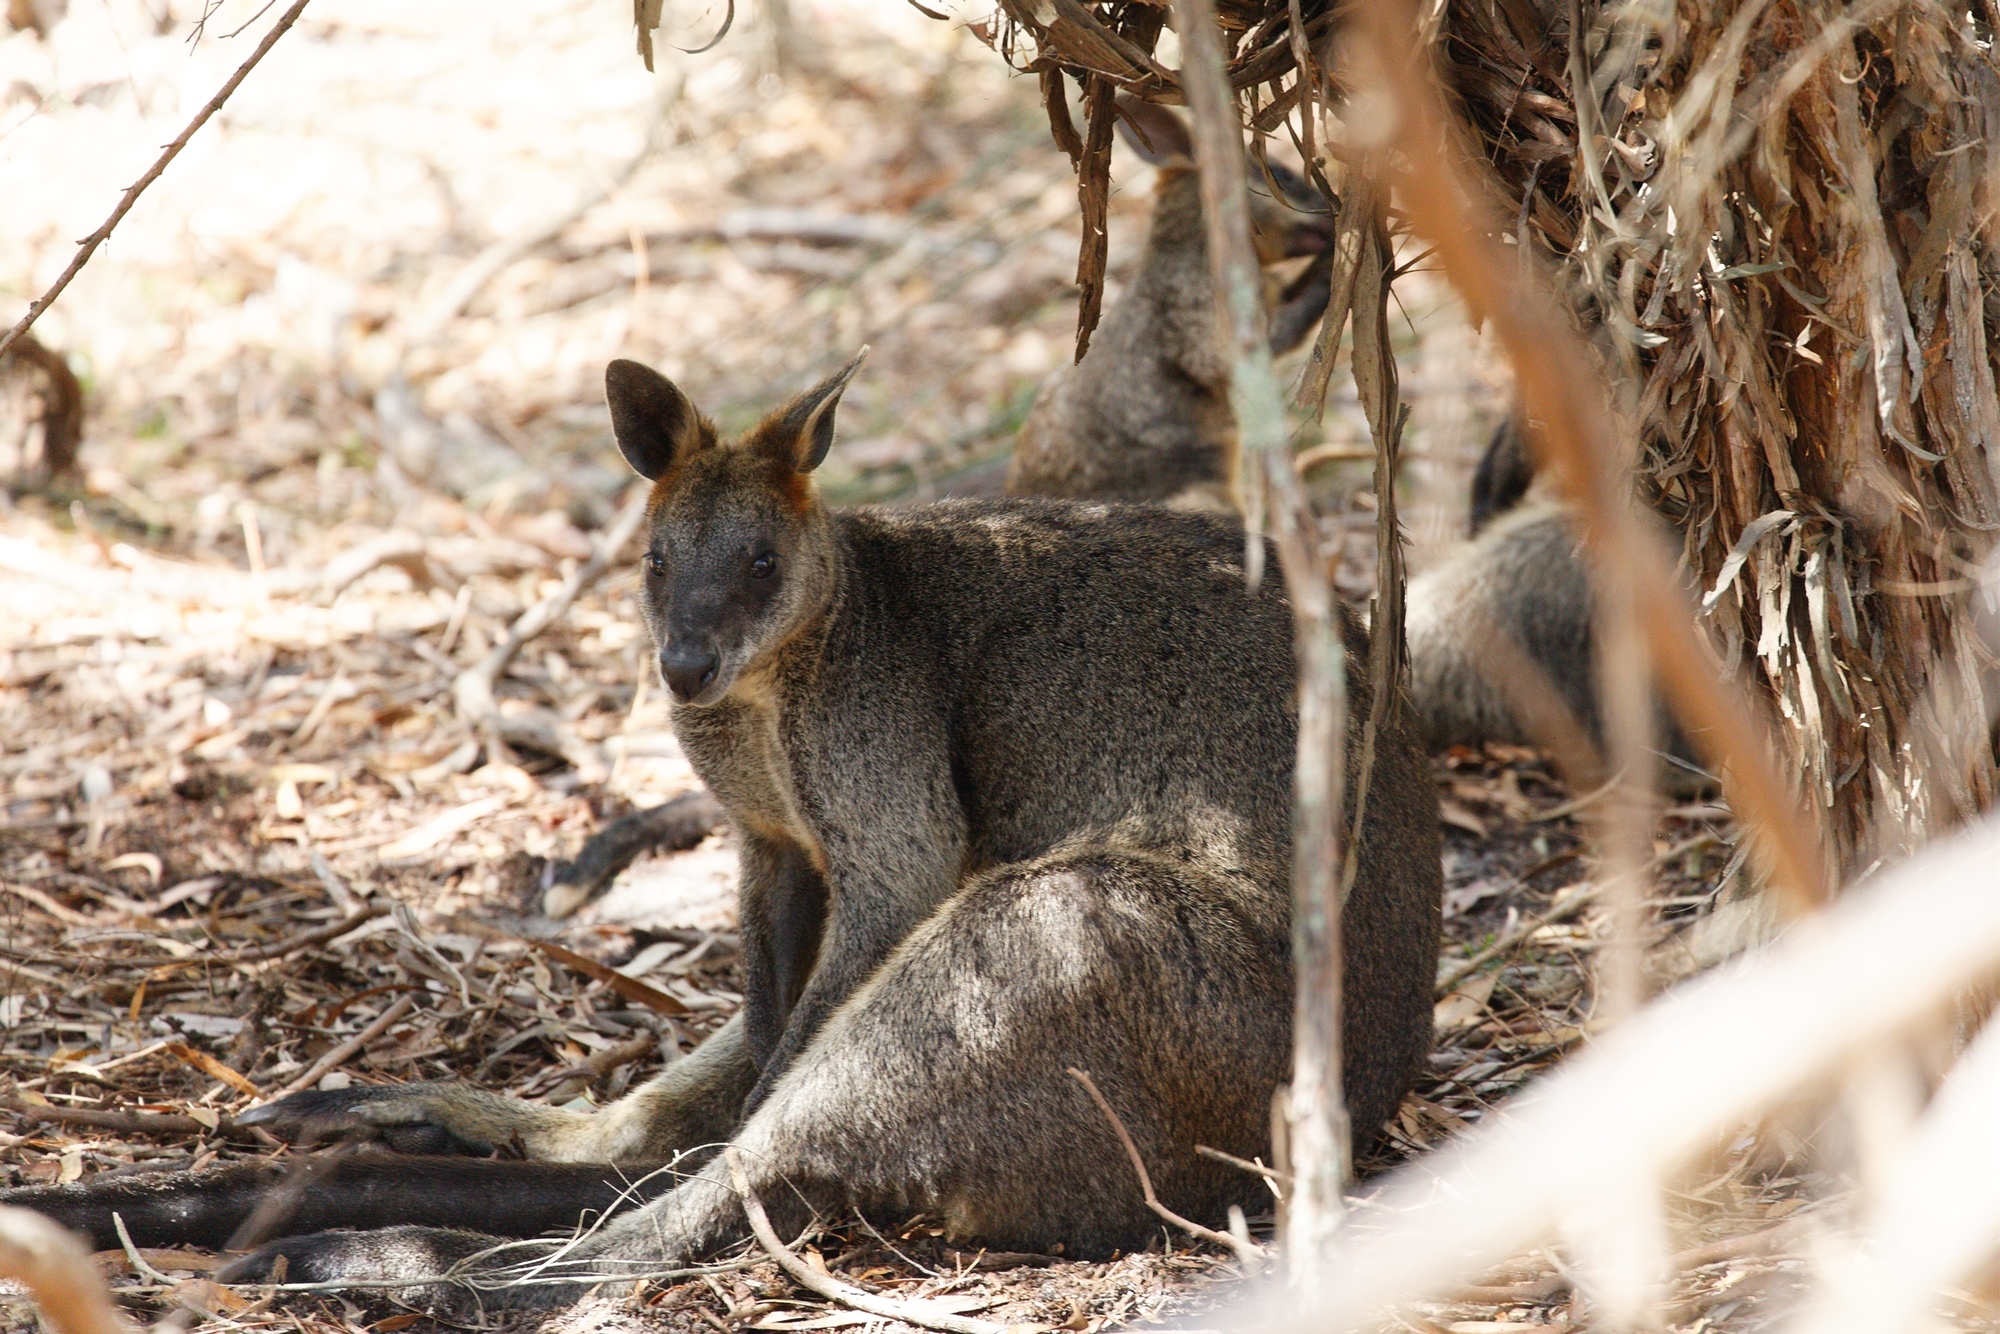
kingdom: Animalia
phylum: Chordata
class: Mammalia
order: Diprotodontia
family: Macropodidae
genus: Wallabia
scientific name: Wallabia bicolor
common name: Swamp wallaby
